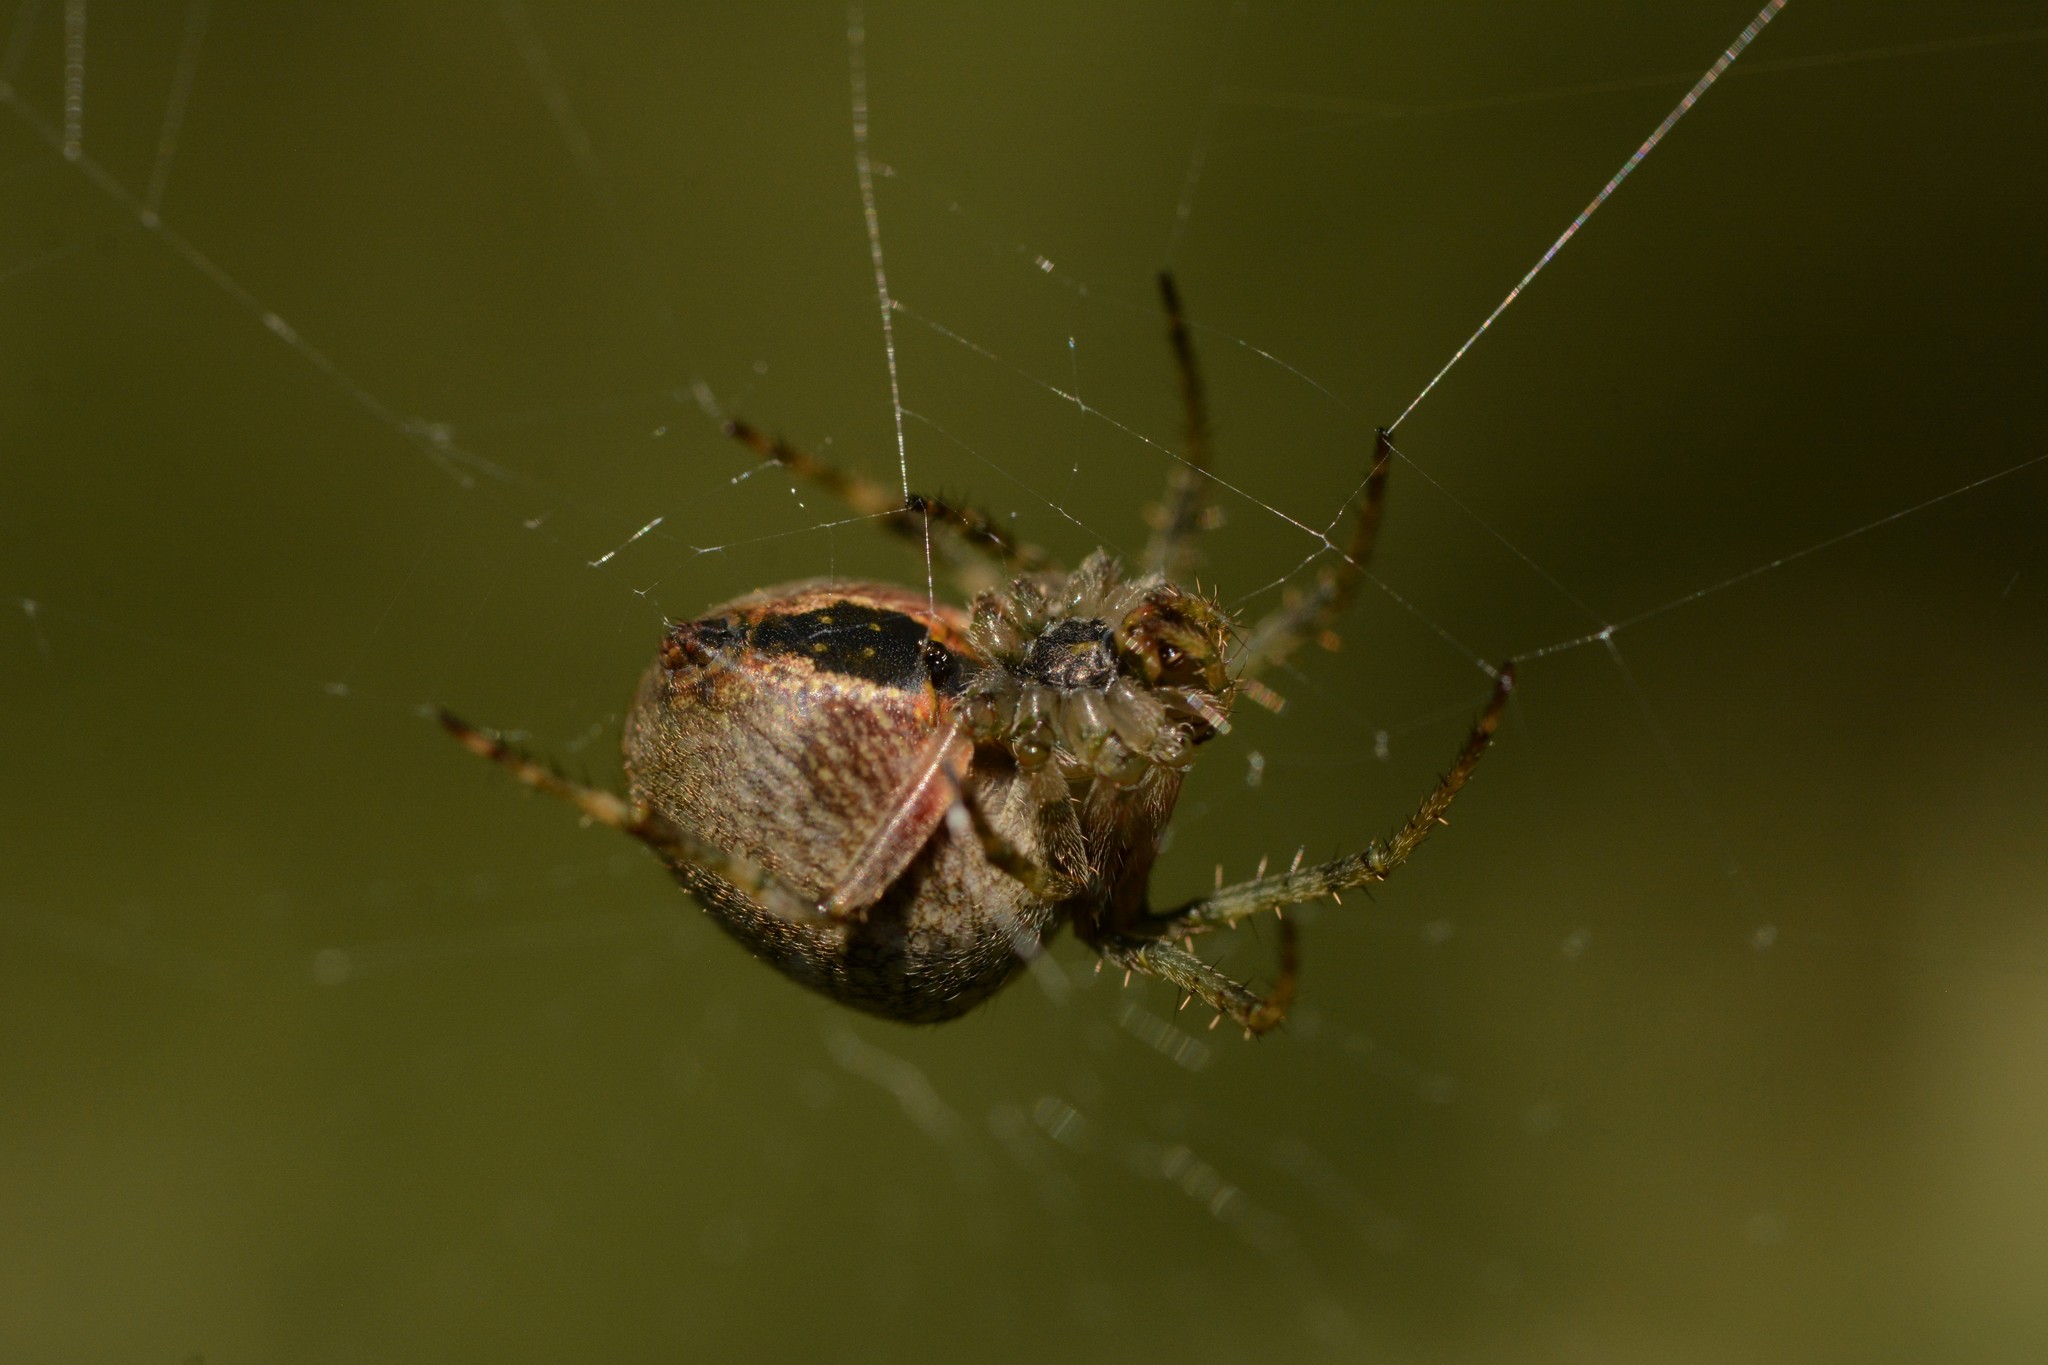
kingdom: Animalia
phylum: Arthropoda
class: Arachnida
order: Araneae
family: Araneidae
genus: Zealaranea
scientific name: Zealaranea crassa
